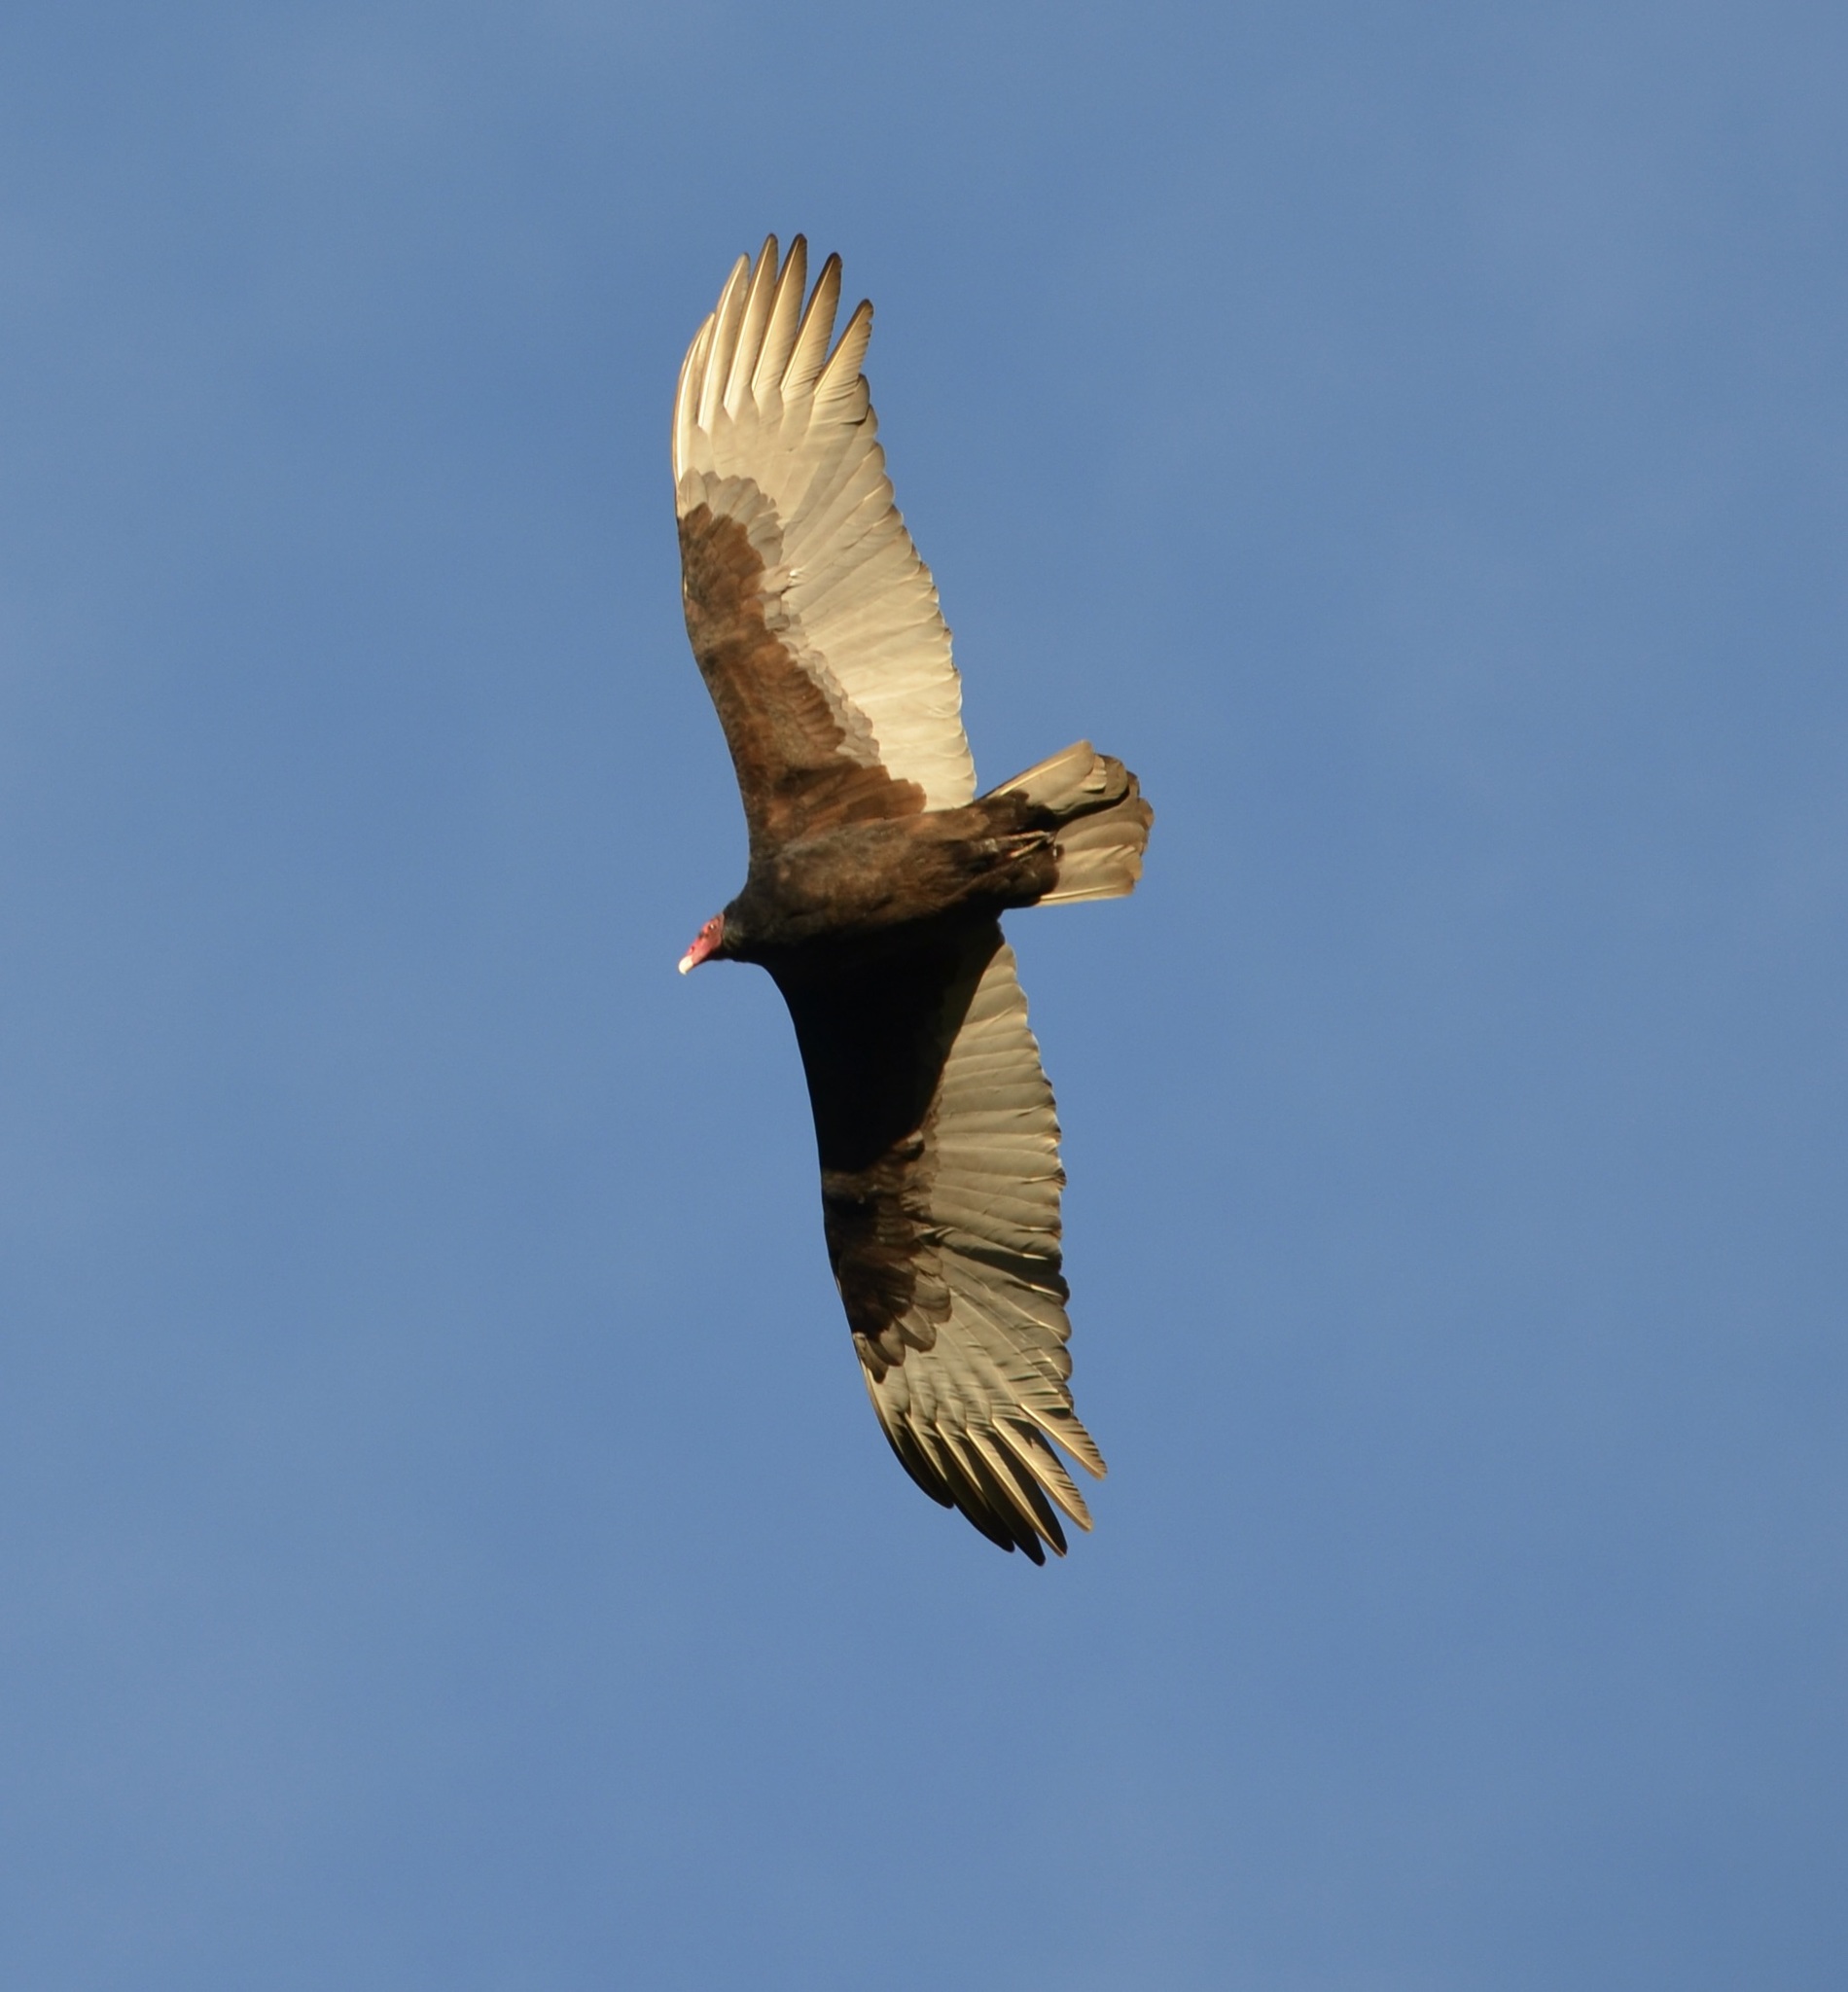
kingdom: Animalia
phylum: Chordata
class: Aves
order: Accipitriformes
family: Cathartidae
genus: Cathartes
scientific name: Cathartes aura
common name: Turkey vulture
